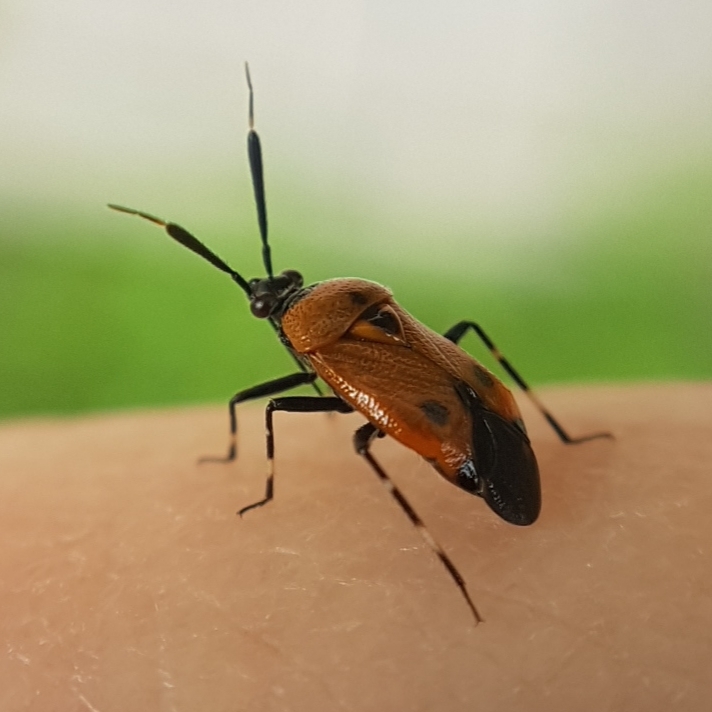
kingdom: Animalia
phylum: Arthropoda
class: Insecta
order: Hemiptera
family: Miridae
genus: Deraeocoris
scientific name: Deraeocoris punctum
